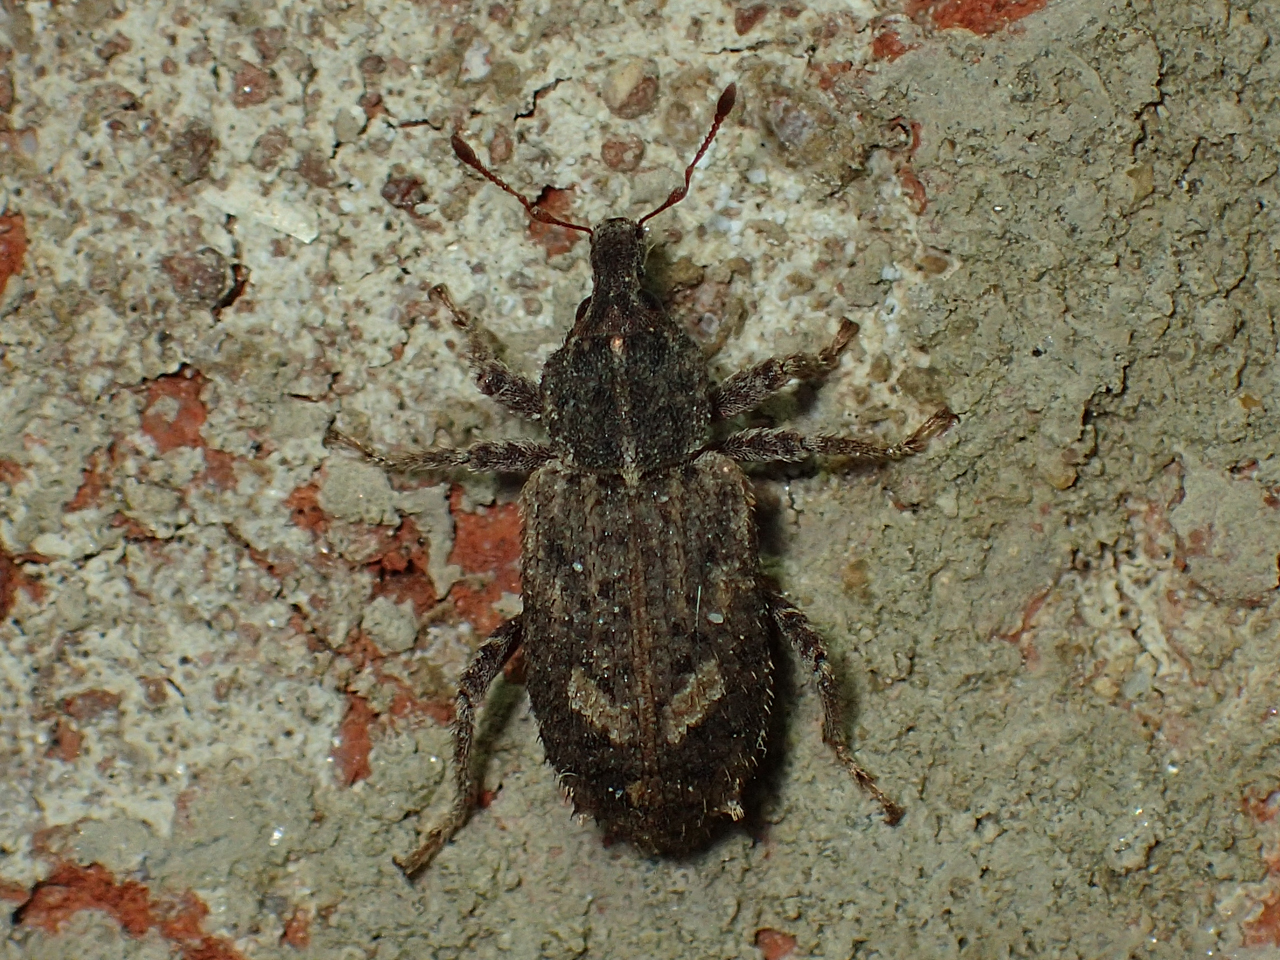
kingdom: Animalia
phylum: Arthropoda
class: Insecta
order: Coleoptera
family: Curculionidae
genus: Listroderes
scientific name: Listroderes costirostris
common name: Weevil
